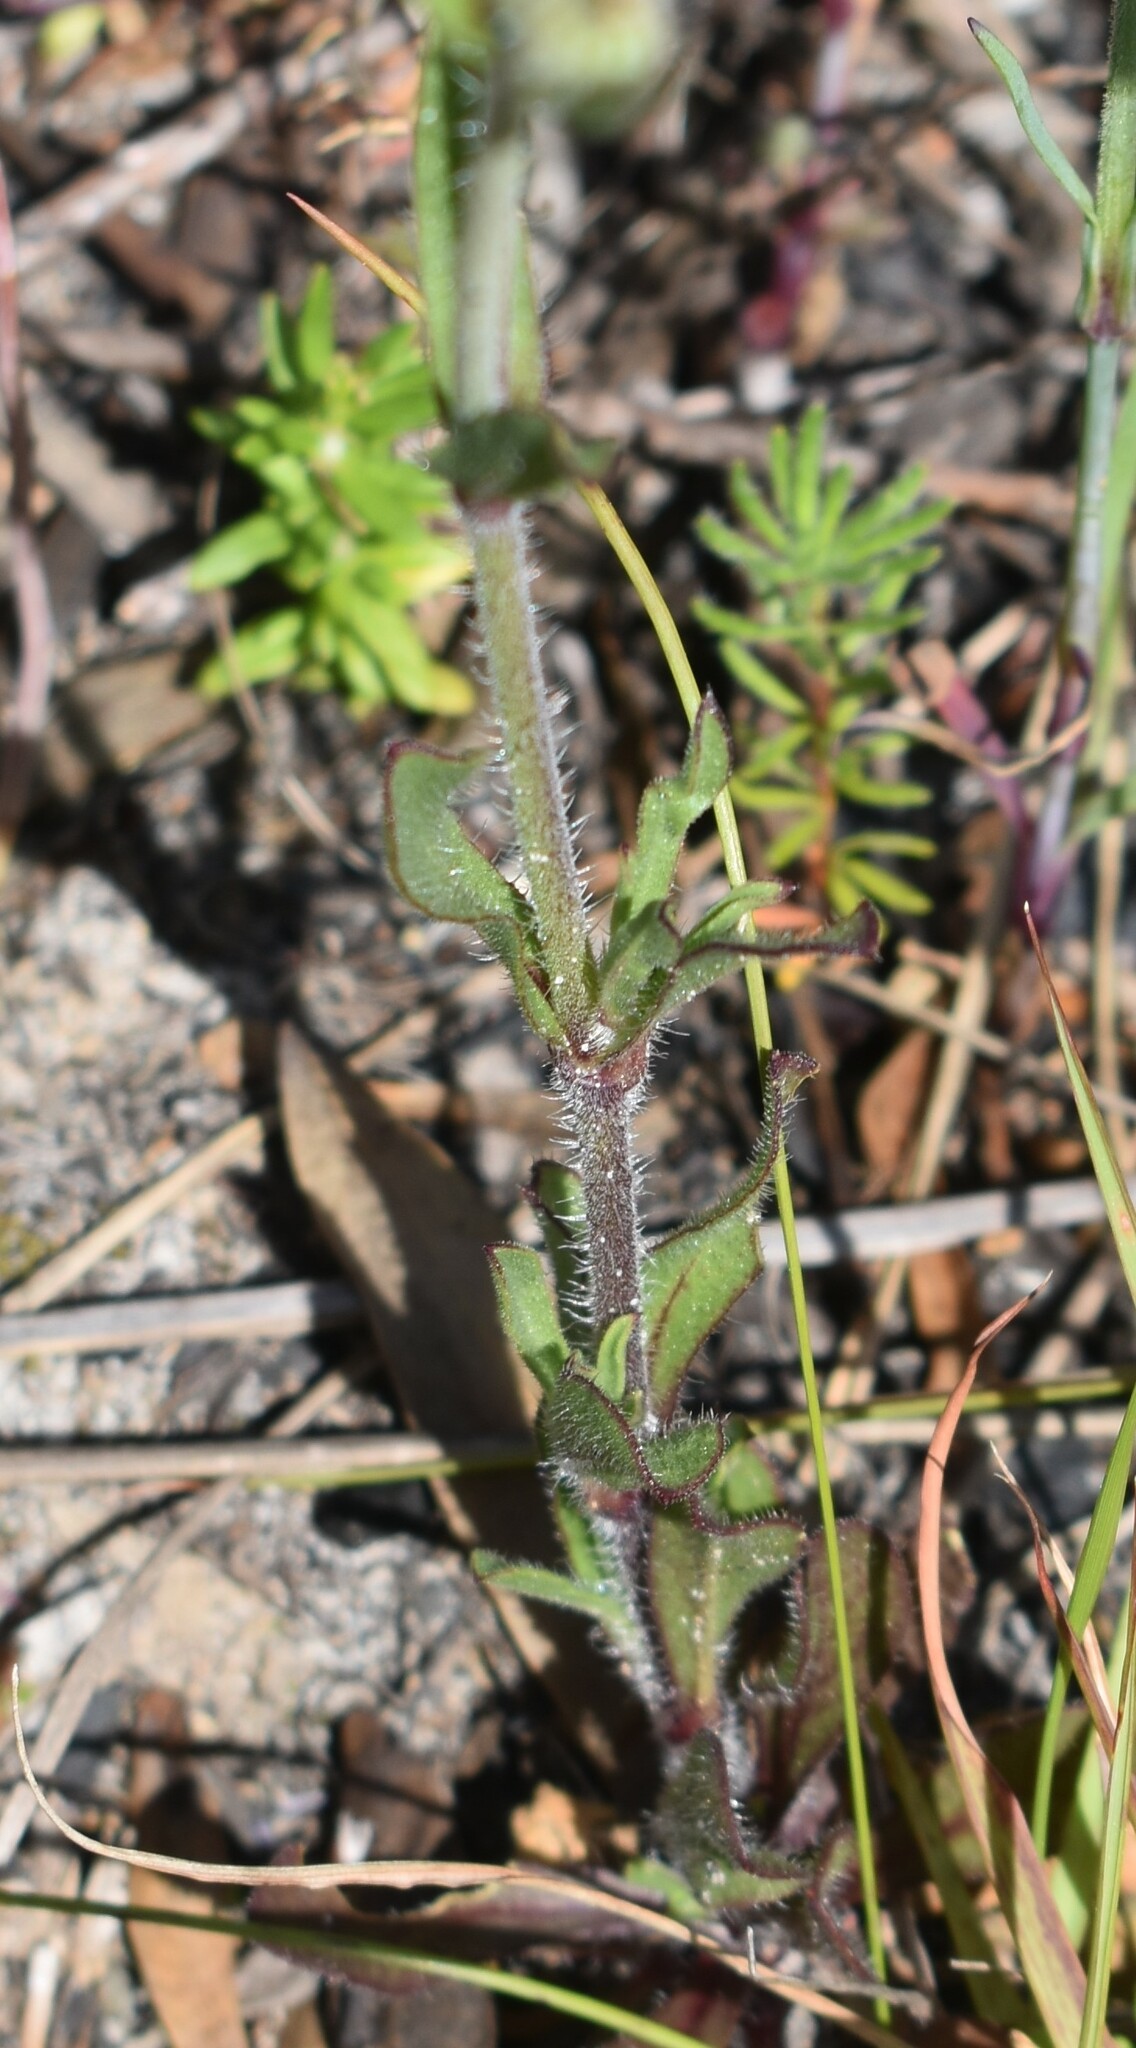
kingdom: Plantae
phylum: Tracheophyta
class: Magnoliopsida
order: Caryophyllales
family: Caryophyllaceae
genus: Silene
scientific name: Silene gallica
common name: Small-flowered catchfly
